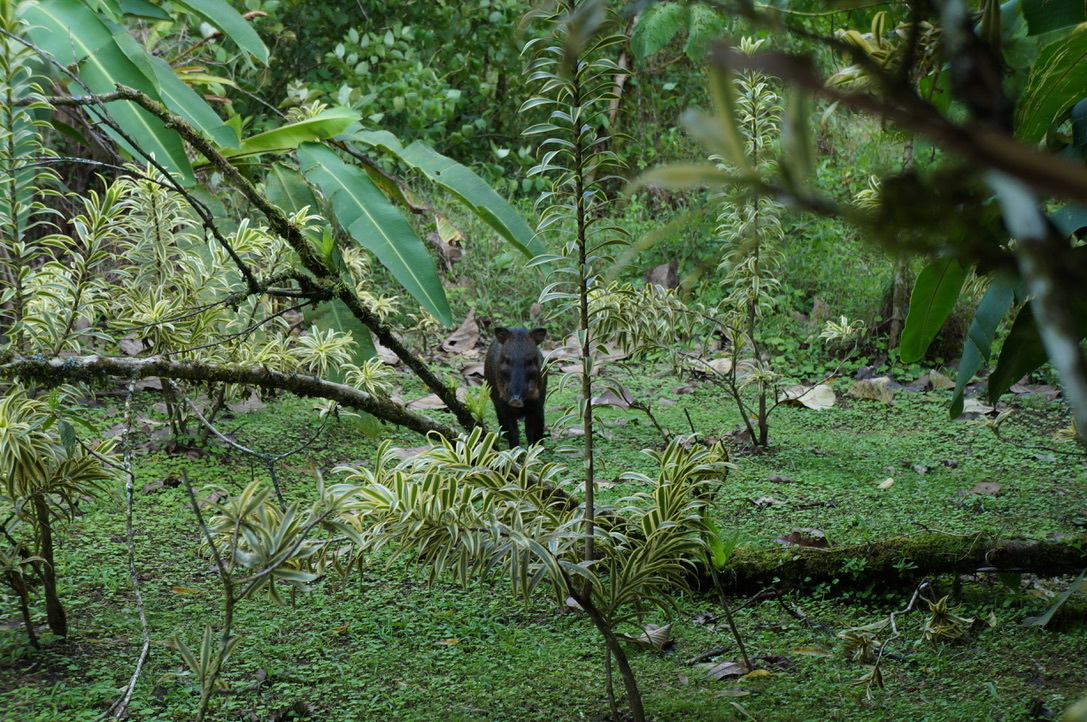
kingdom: Animalia
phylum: Chordata
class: Mammalia
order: Artiodactyla
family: Tayassuidae
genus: Pecari
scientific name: Pecari tajacu
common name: Collared peccary
